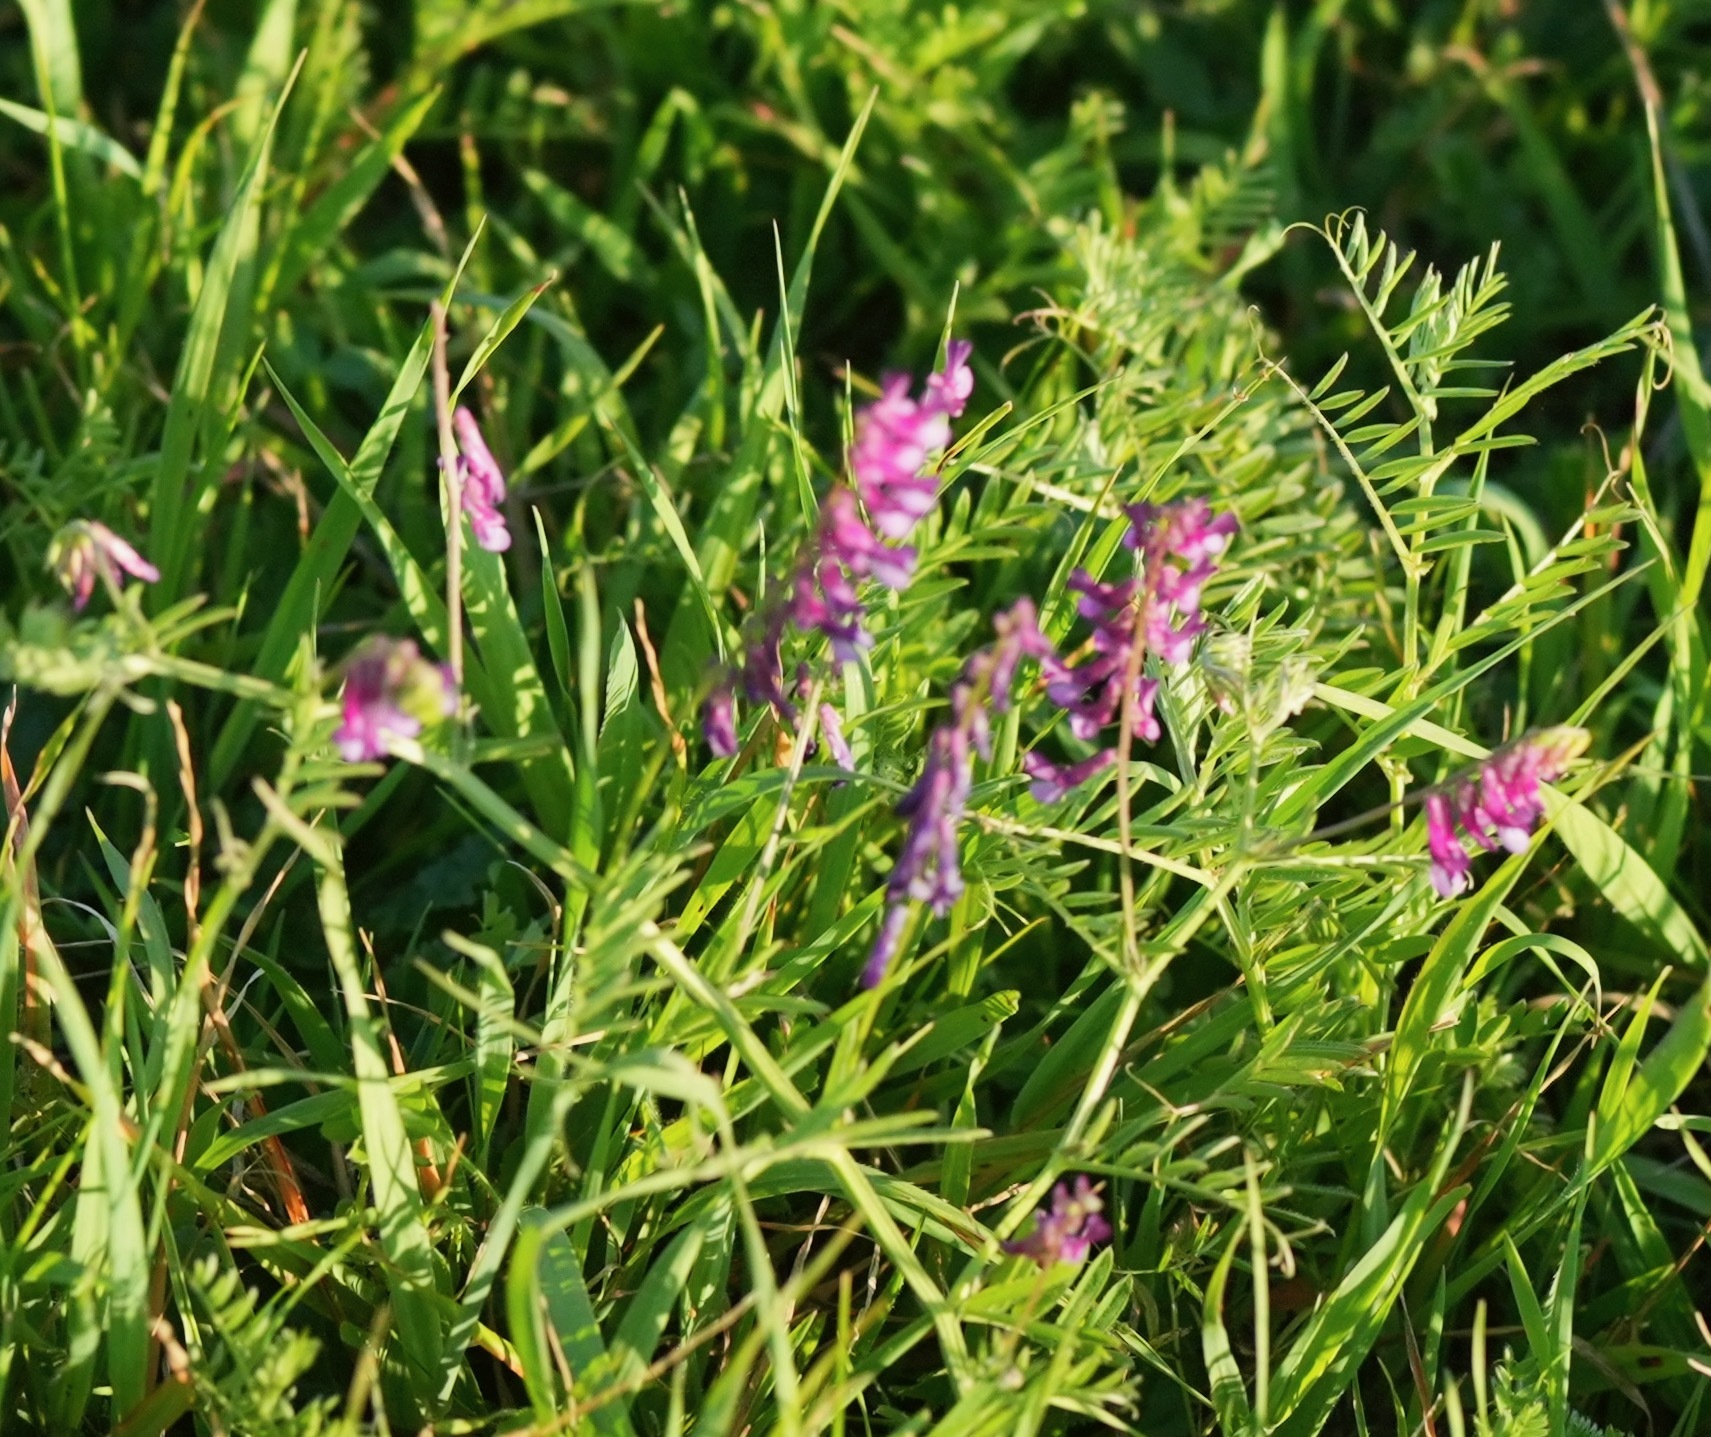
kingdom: Plantae
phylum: Tracheophyta
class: Magnoliopsida
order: Fabales
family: Fabaceae
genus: Vicia
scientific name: Vicia villosa
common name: Fodder vetch
